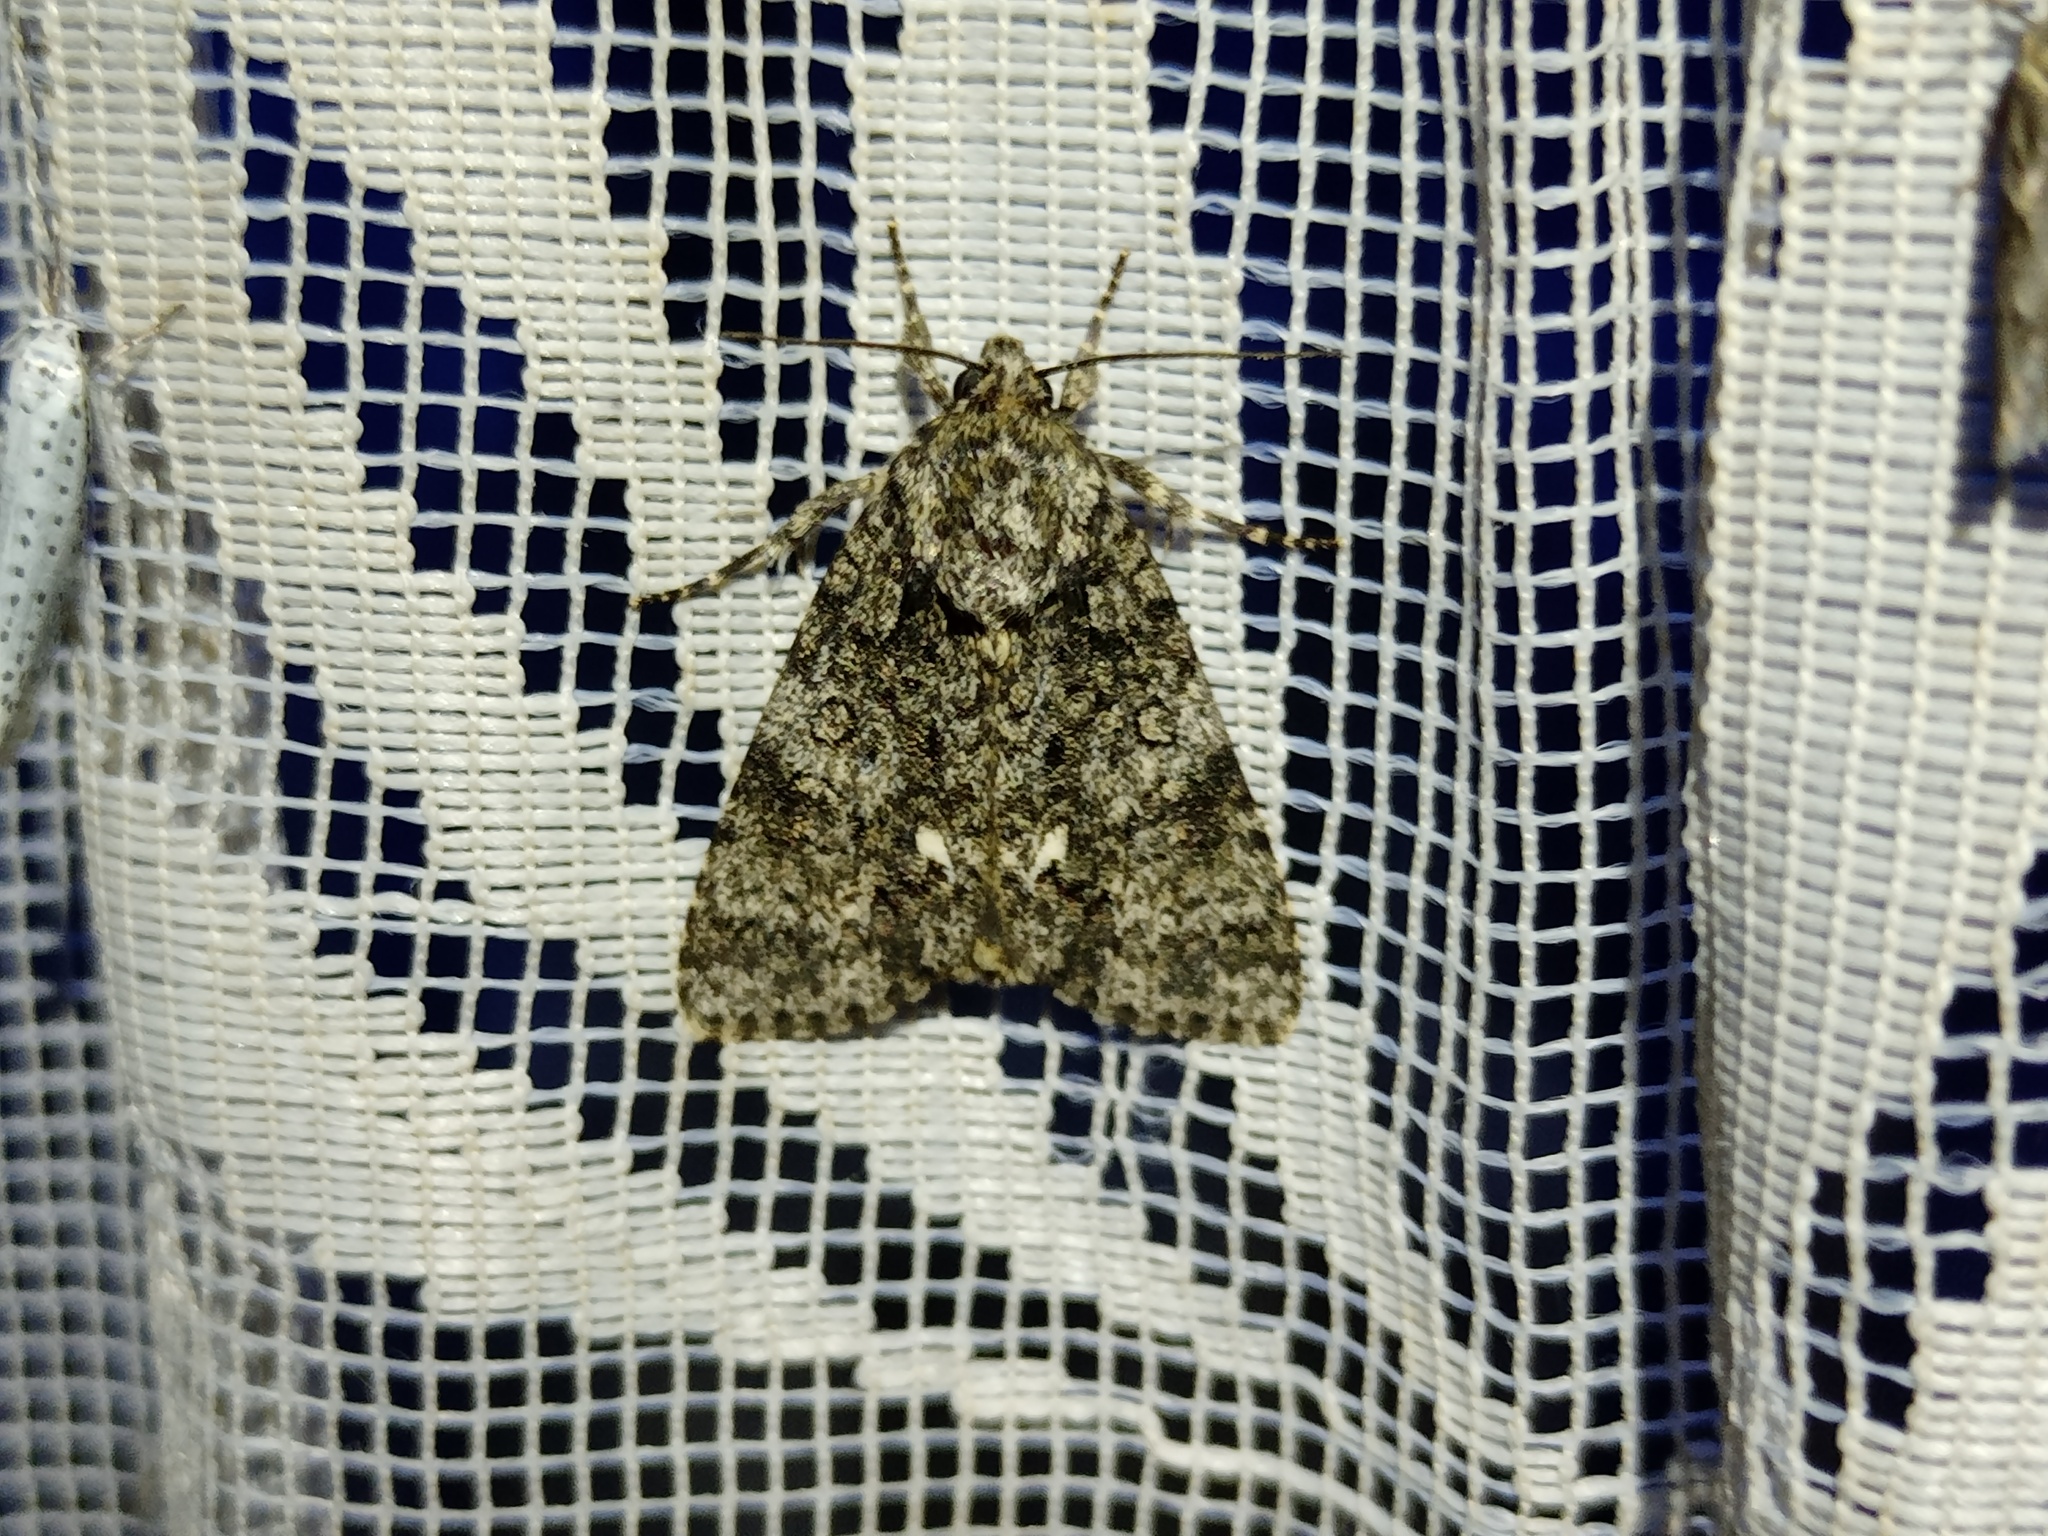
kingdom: Animalia
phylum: Arthropoda
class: Insecta
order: Lepidoptera
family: Noctuidae
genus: Acronicta
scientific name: Acronicta rumicis
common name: Knot grass
